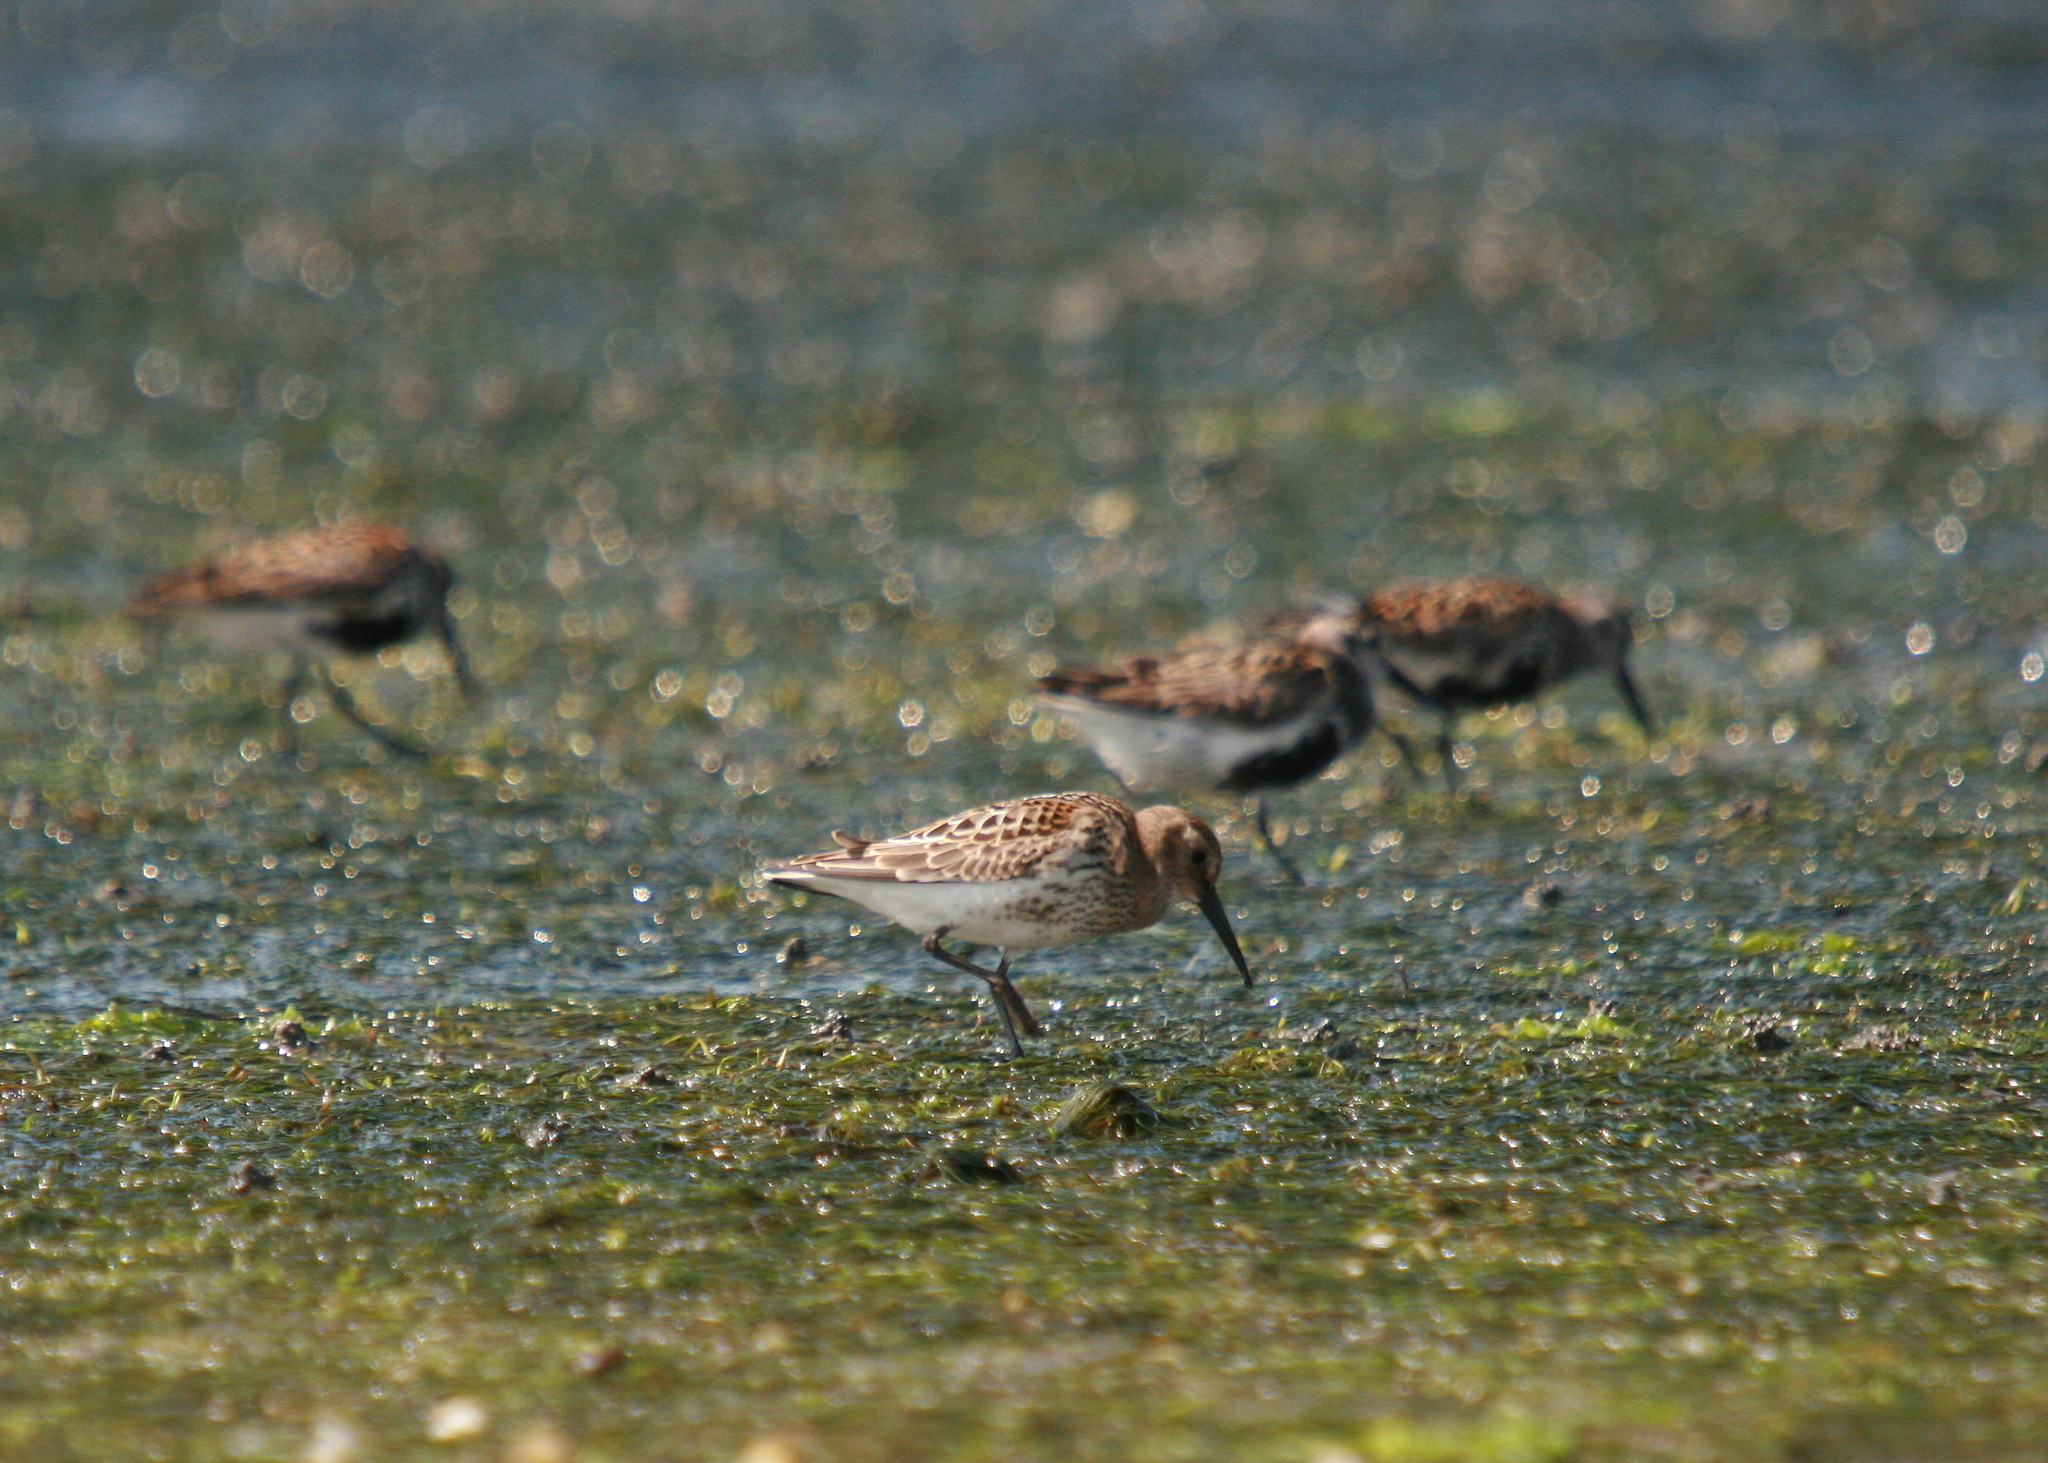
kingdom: Animalia
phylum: Chordata
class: Aves
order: Charadriiformes
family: Scolopacidae
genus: Calidris
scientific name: Calidris alpina
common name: Dunlin
